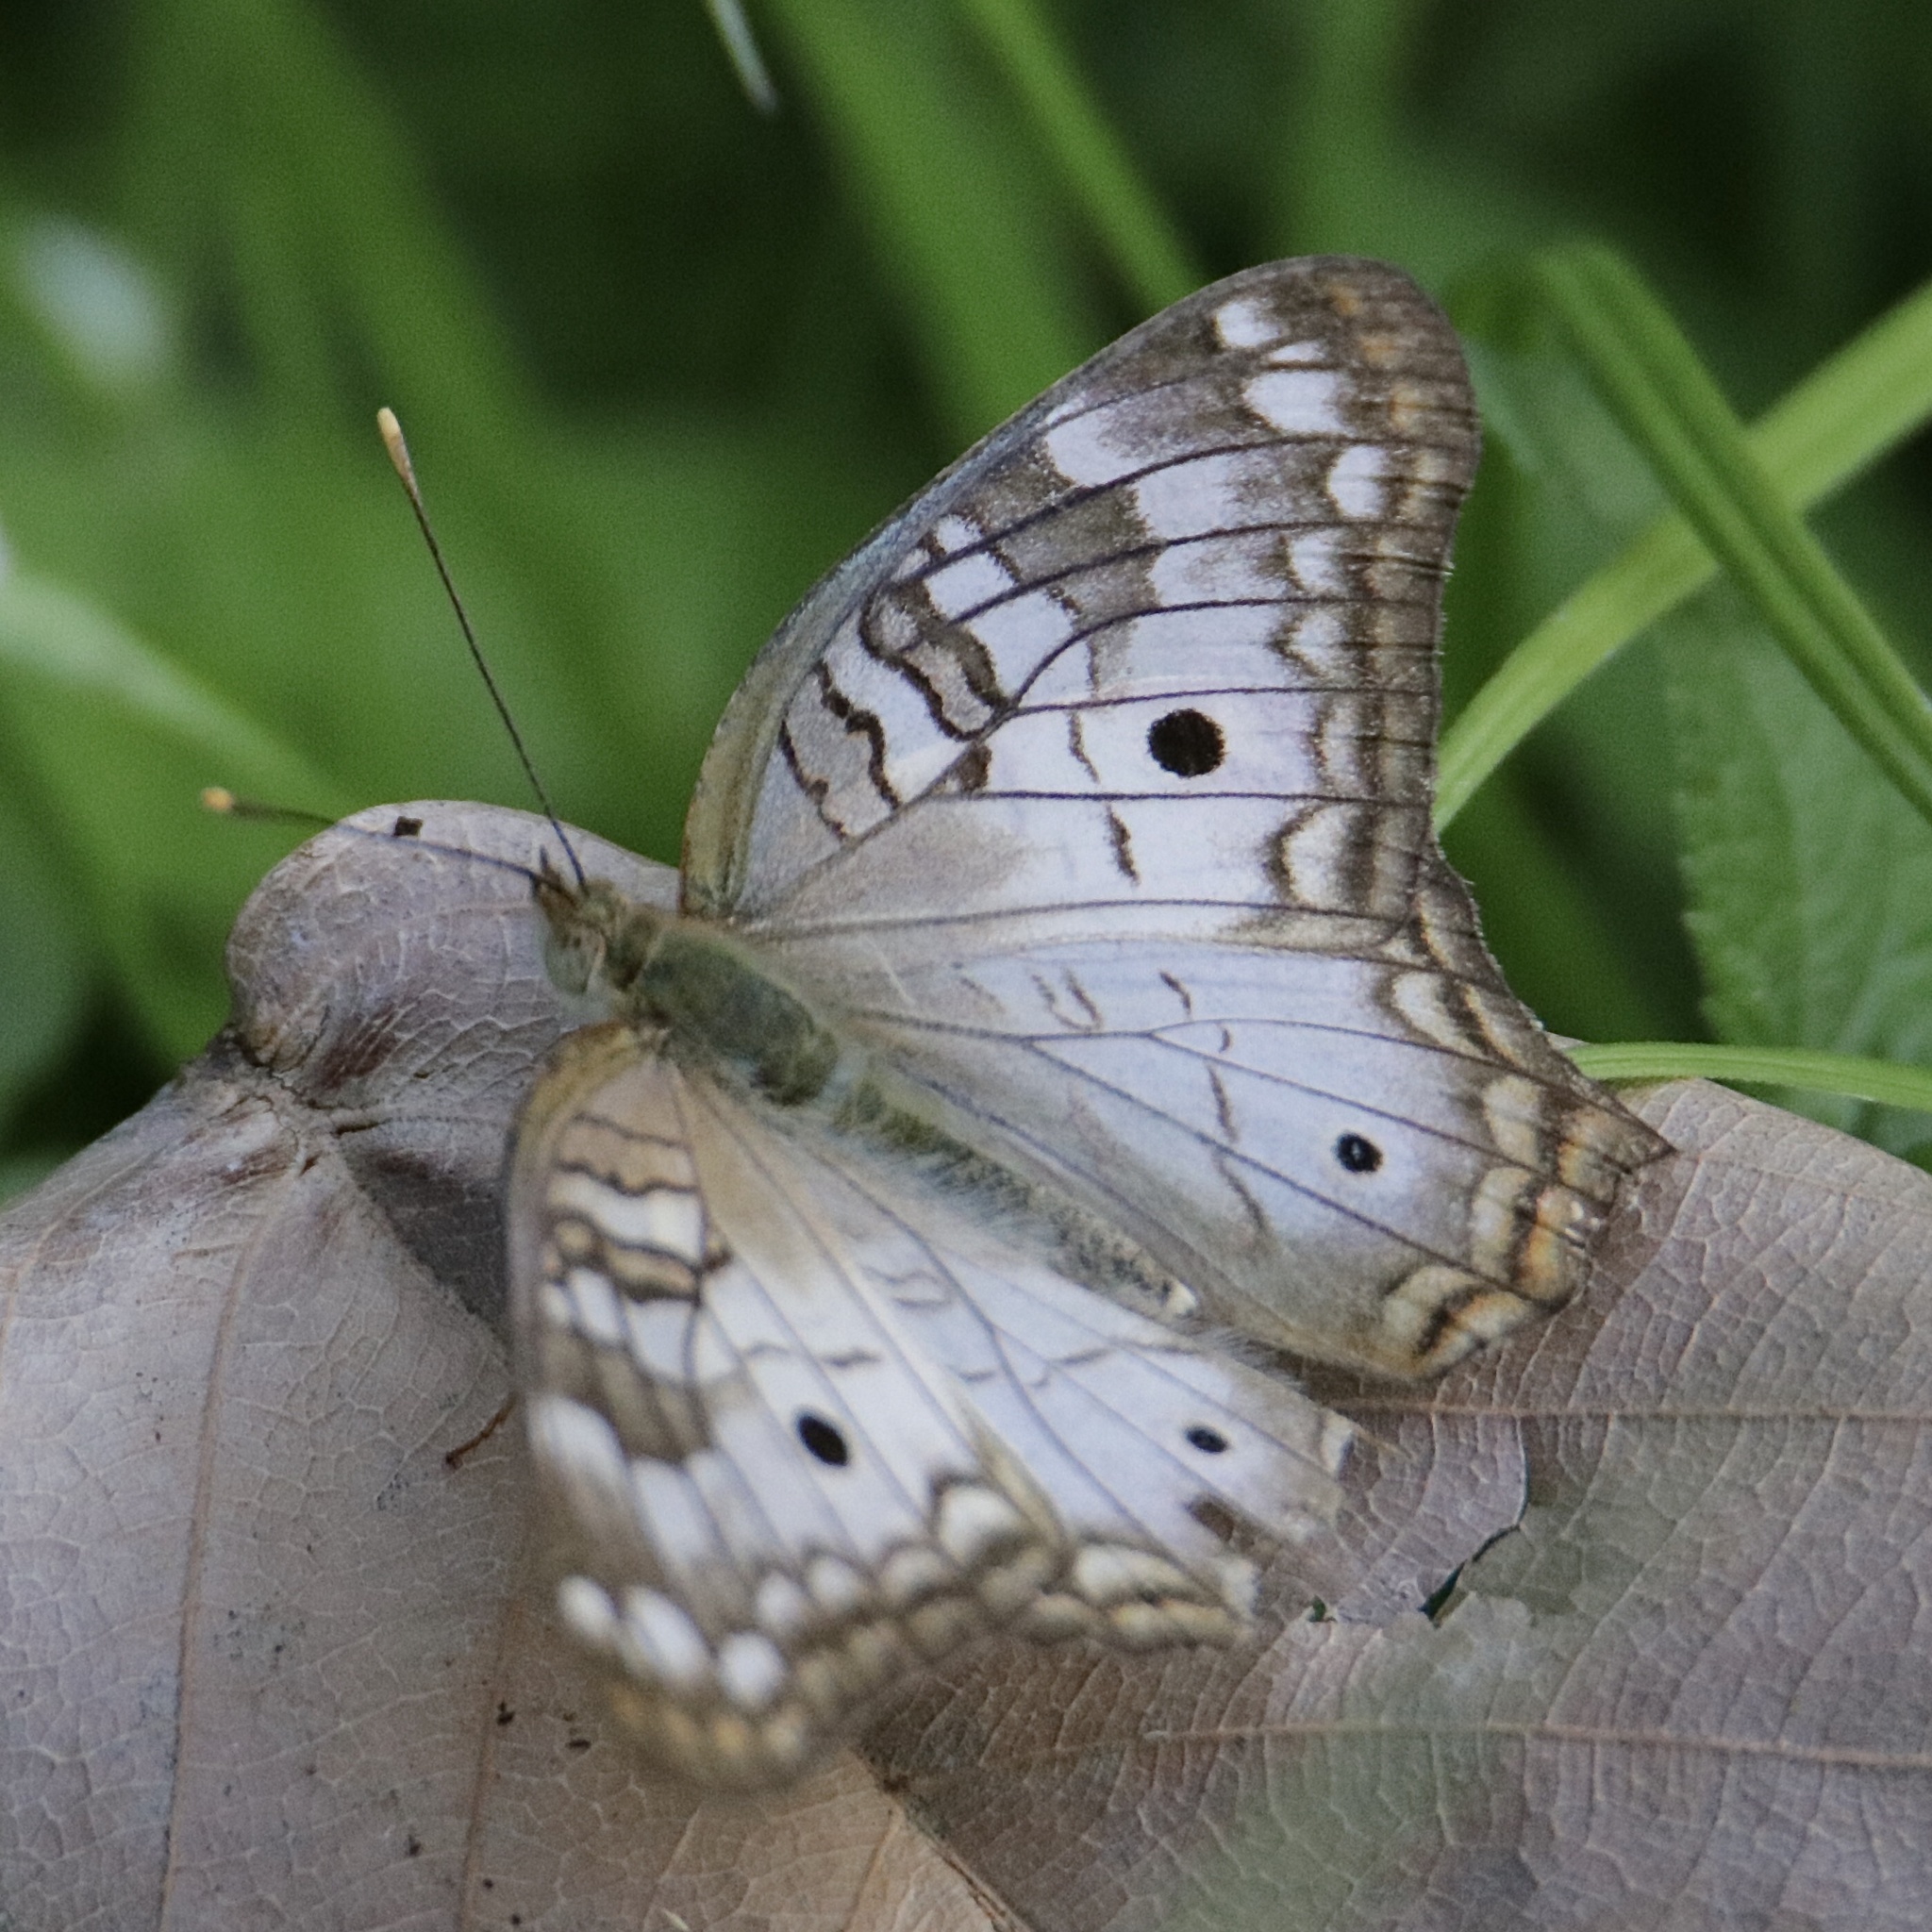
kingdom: Animalia
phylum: Arthropoda
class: Insecta
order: Lepidoptera
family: Nymphalidae
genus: Anartia
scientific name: Anartia jatrophae
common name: White peacock
